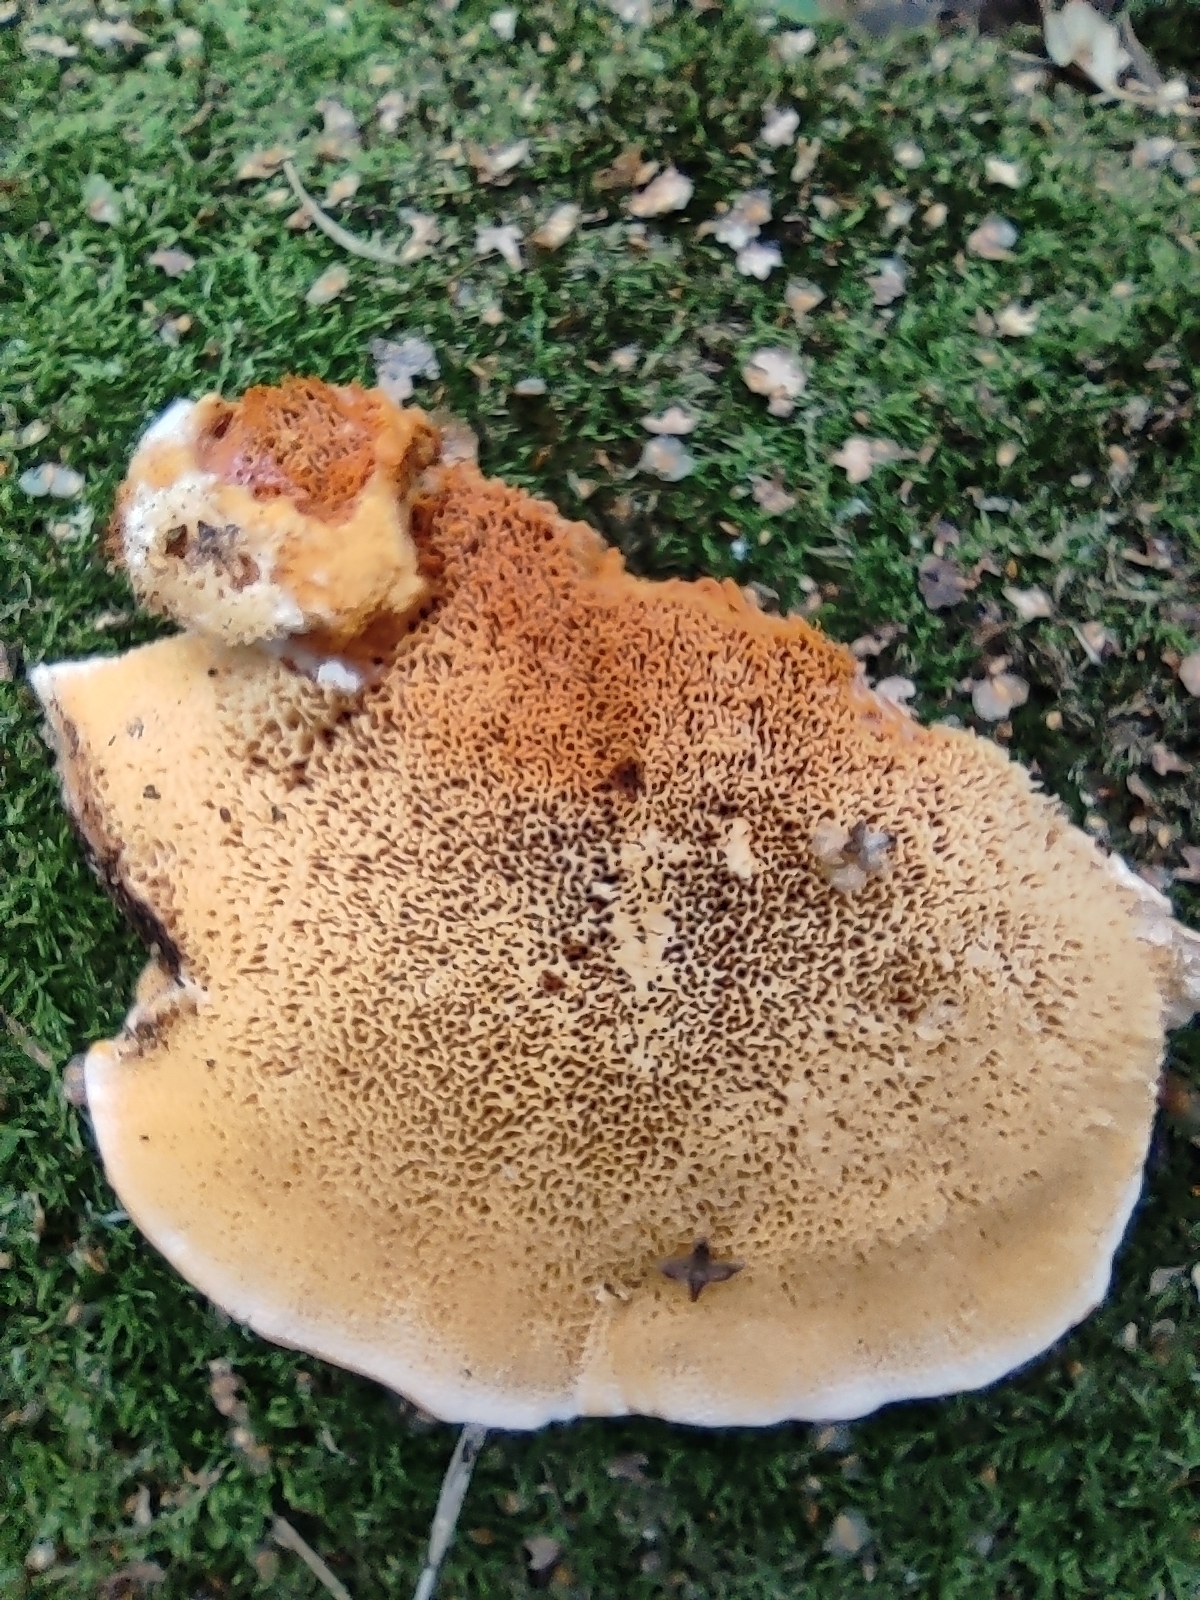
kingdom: Fungi
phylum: Basidiomycota
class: Agaricomycetes
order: Polyporales
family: Pycnoporellaceae
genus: Pycnoporellus
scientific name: Pycnoporellus fulgens
